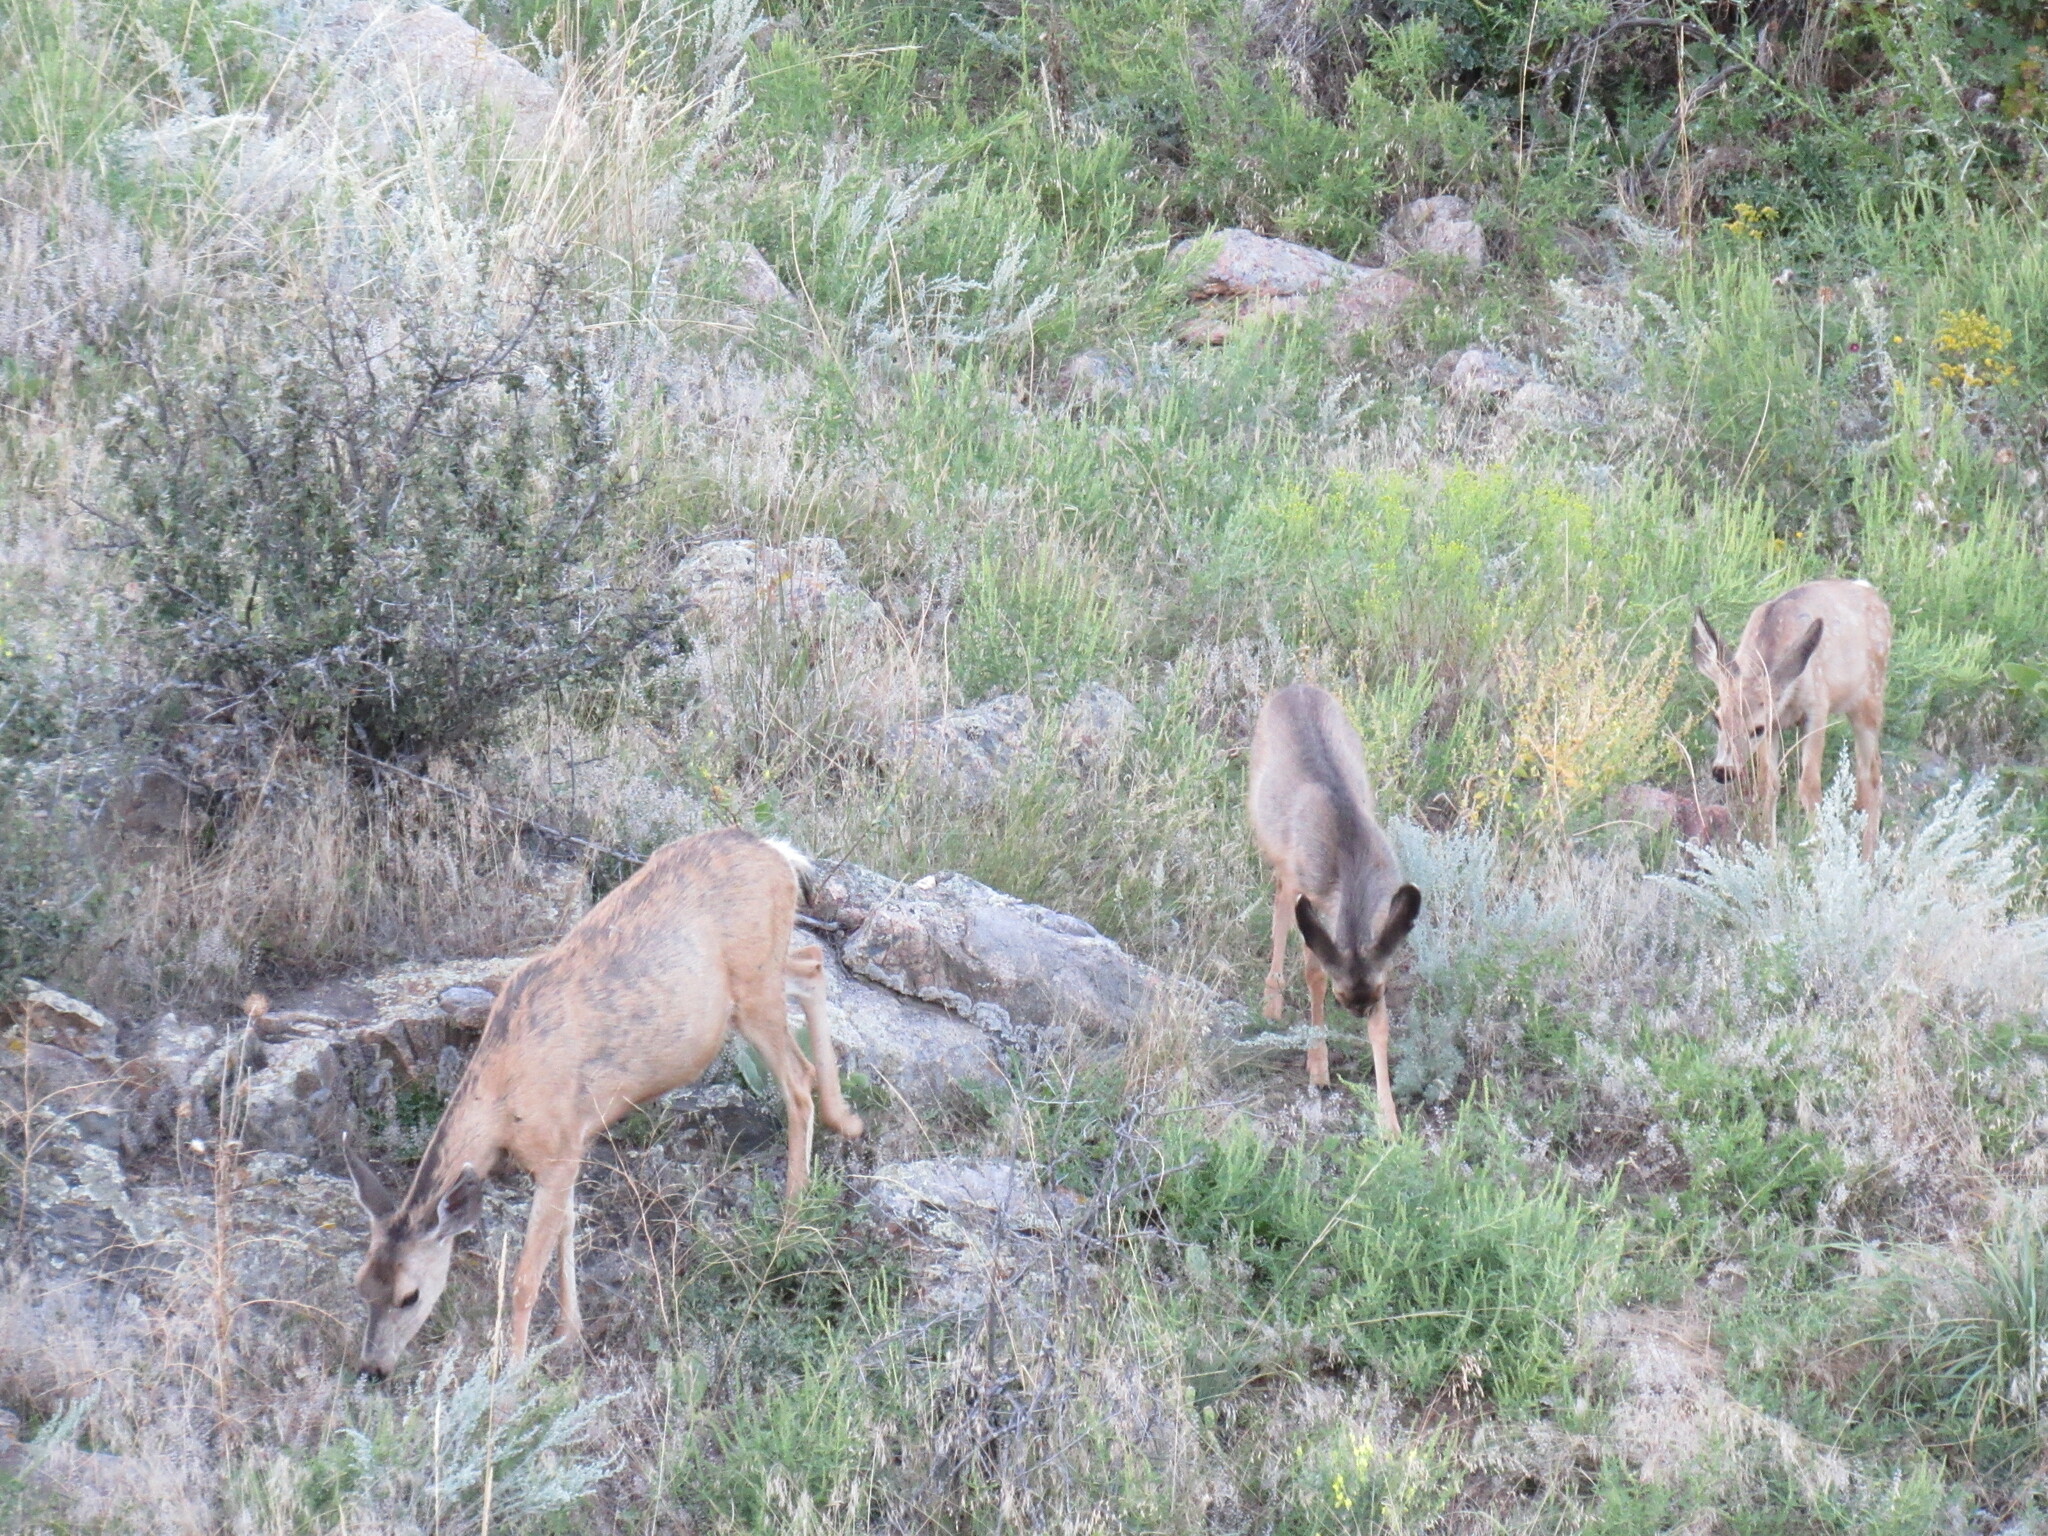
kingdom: Animalia
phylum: Chordata
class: Mammalia
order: Artiodactyla
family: Cervidae
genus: Odocoileus
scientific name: Odocoileus hemionus
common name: Mule deer
